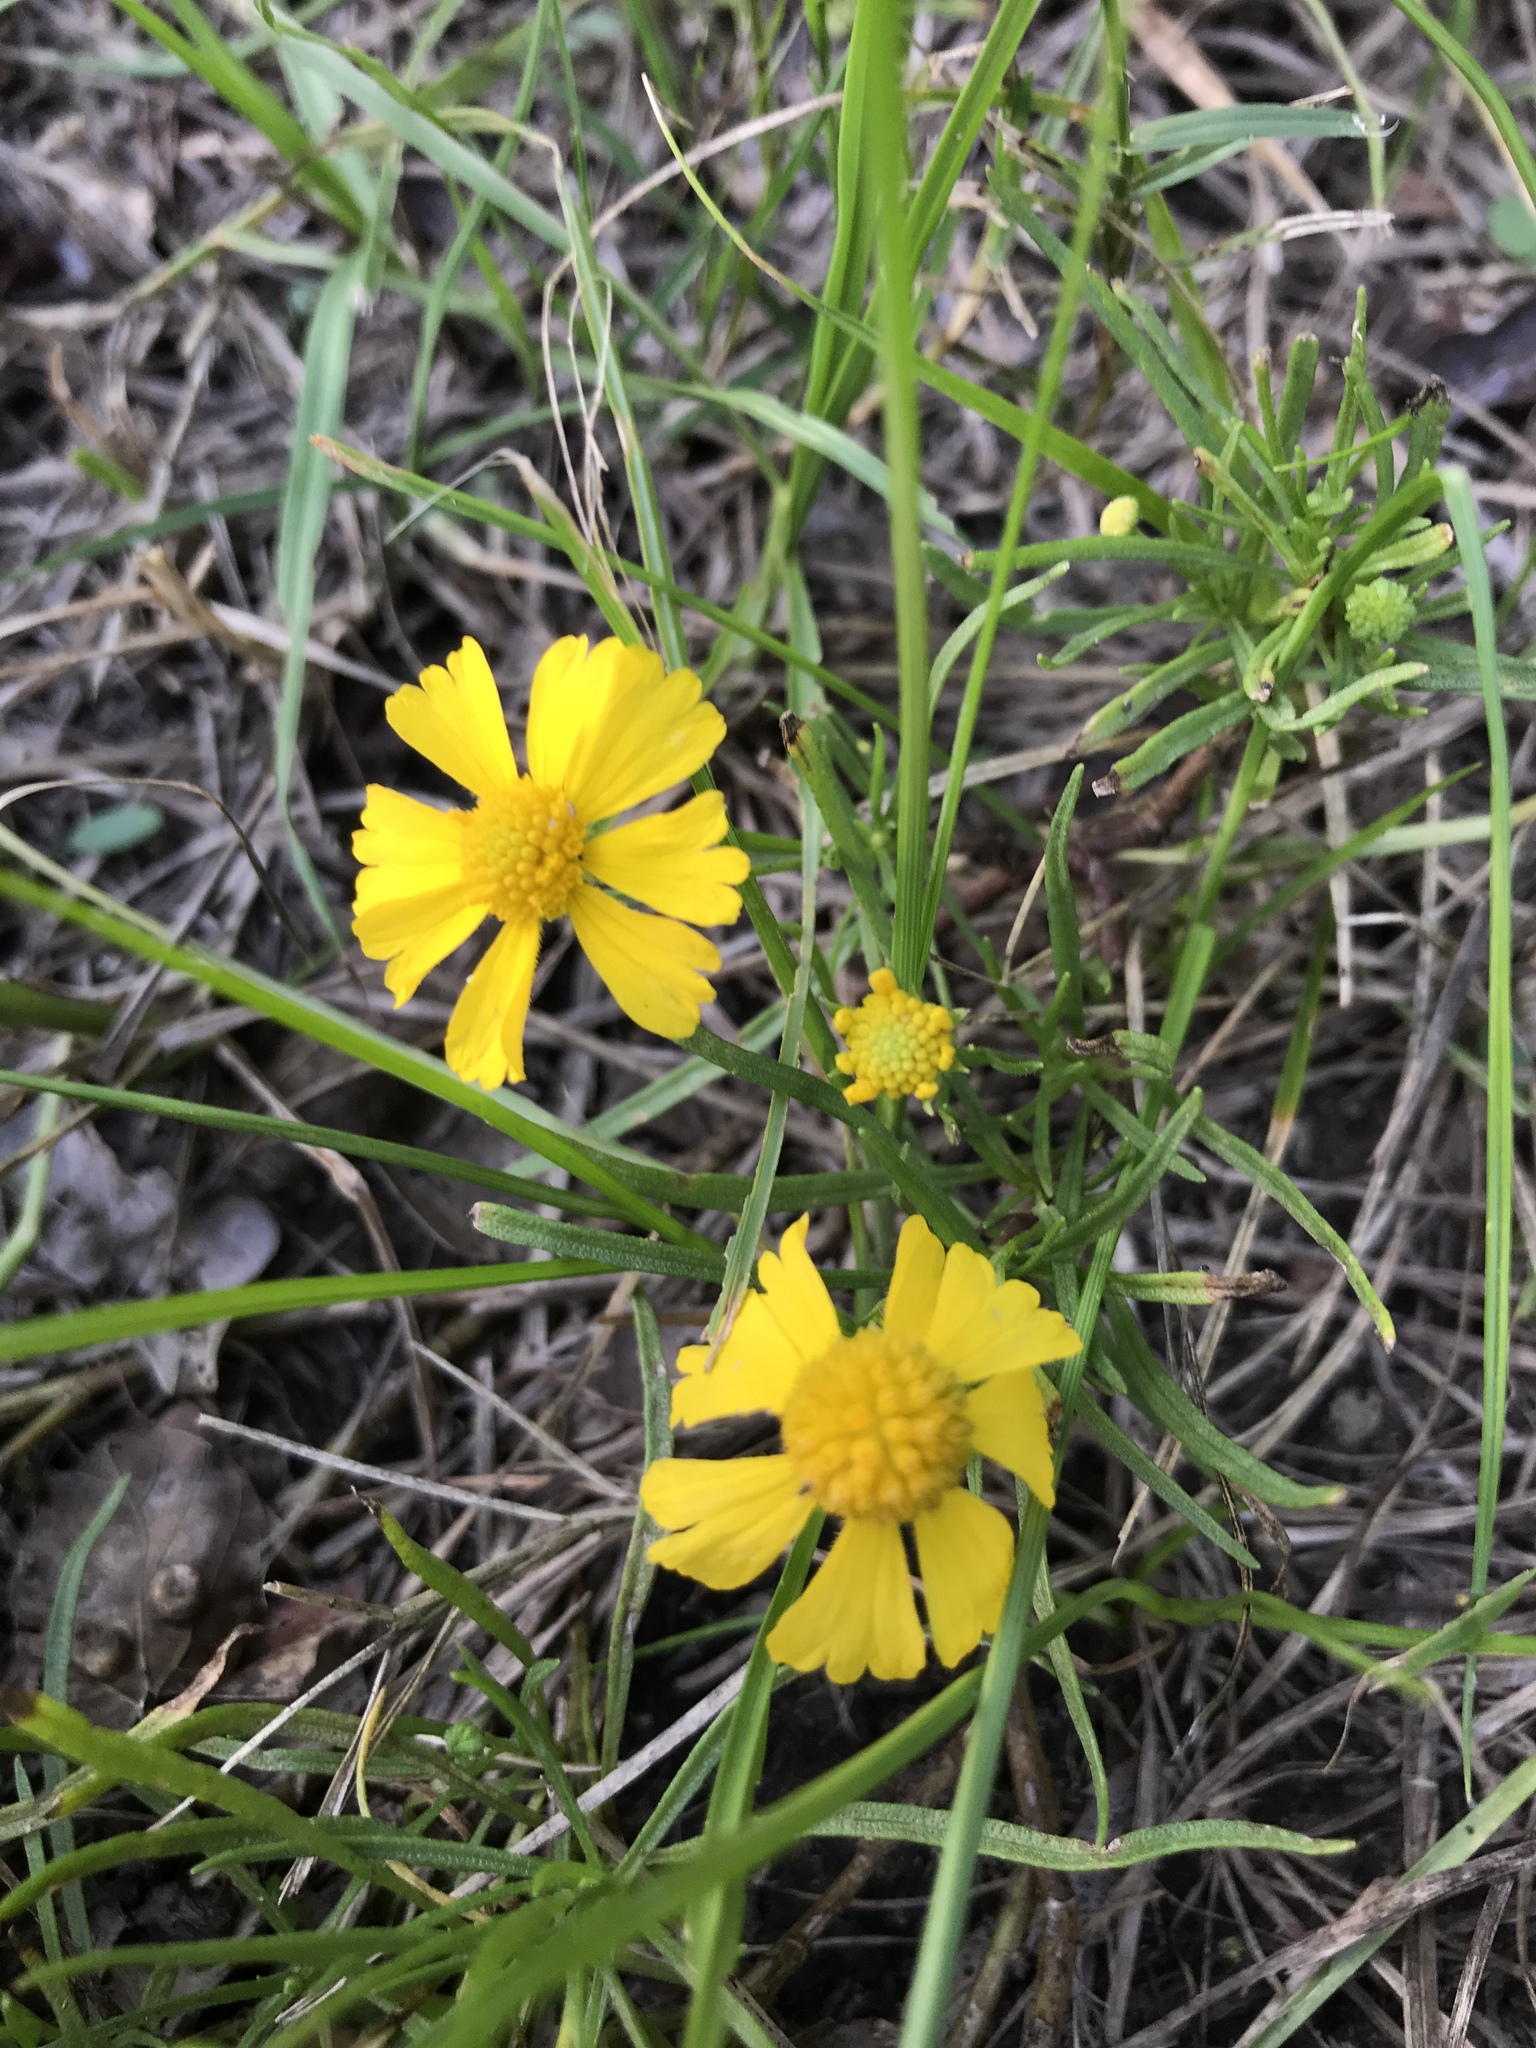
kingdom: Plantae
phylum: Tracheophyta
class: Magnoliopsida
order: Asterales
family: Asteraceae
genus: Helenium
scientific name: Helenium amarum
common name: Bitter sneezeweed
